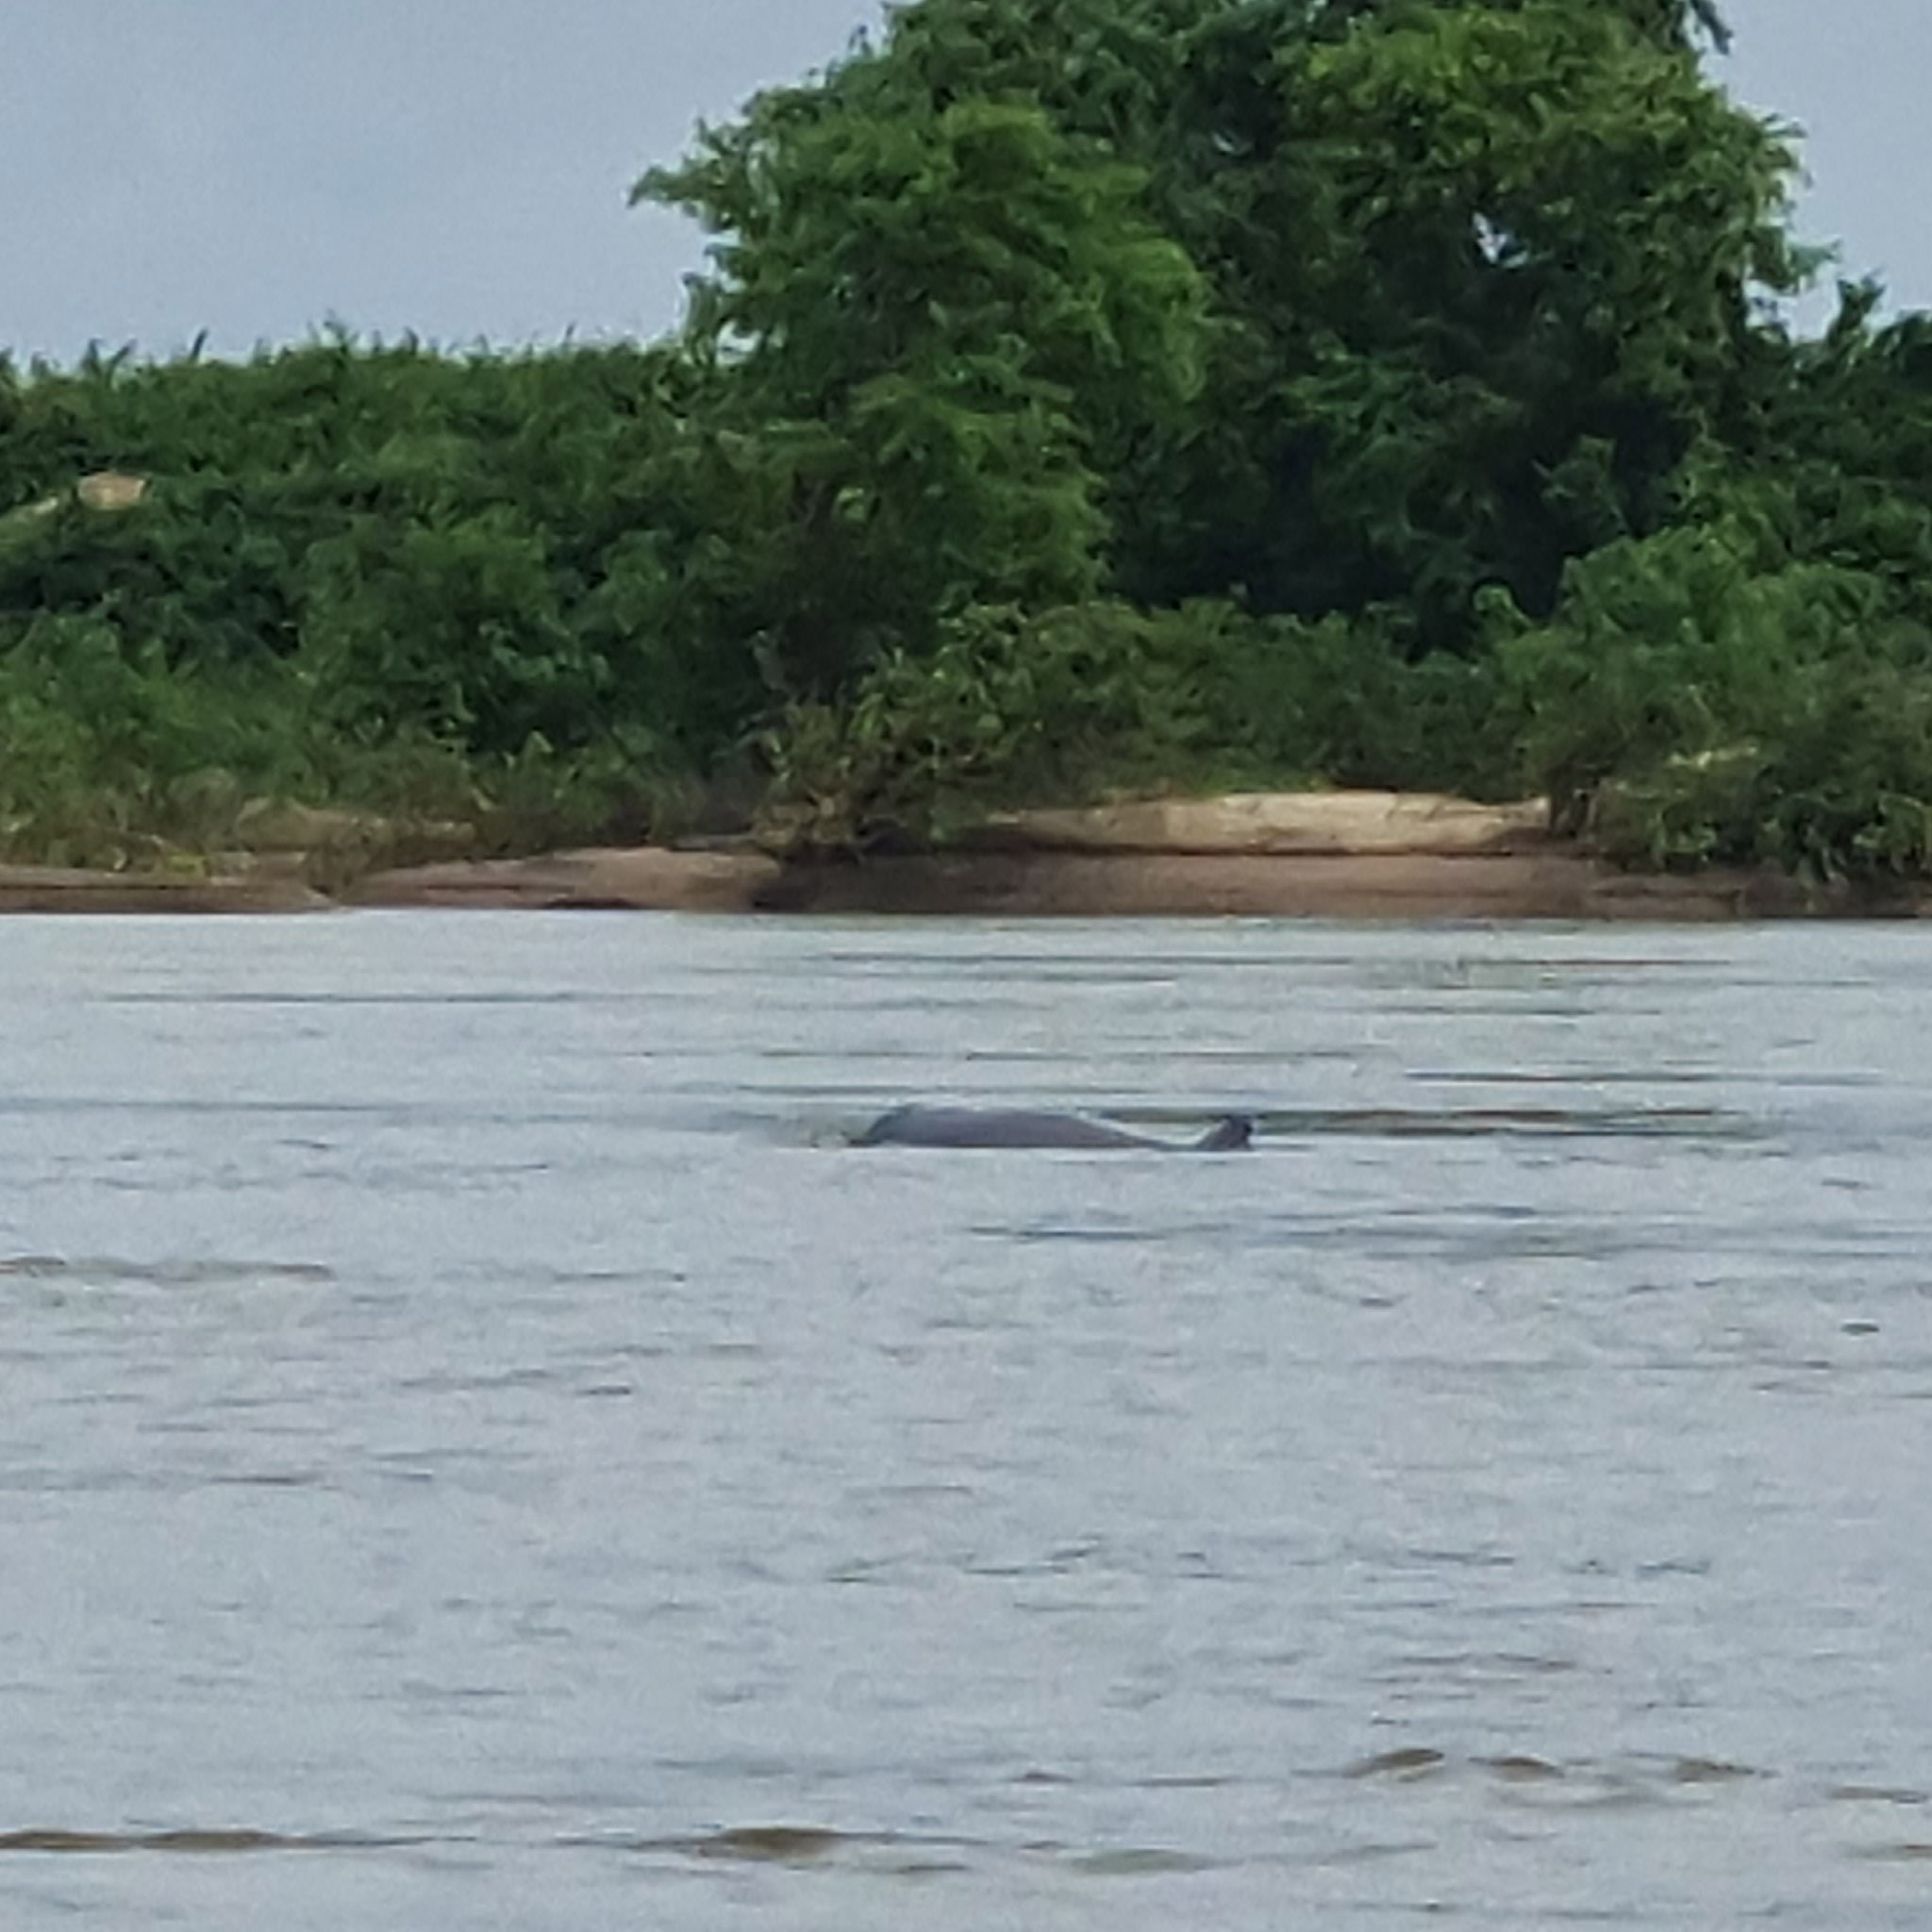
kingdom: Animalia
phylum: Chordata
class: Mammalia
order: Cetacea
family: Delphinidae
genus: Orcaella
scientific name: Orcaella brevirostris
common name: Irrawaddy dolphin
